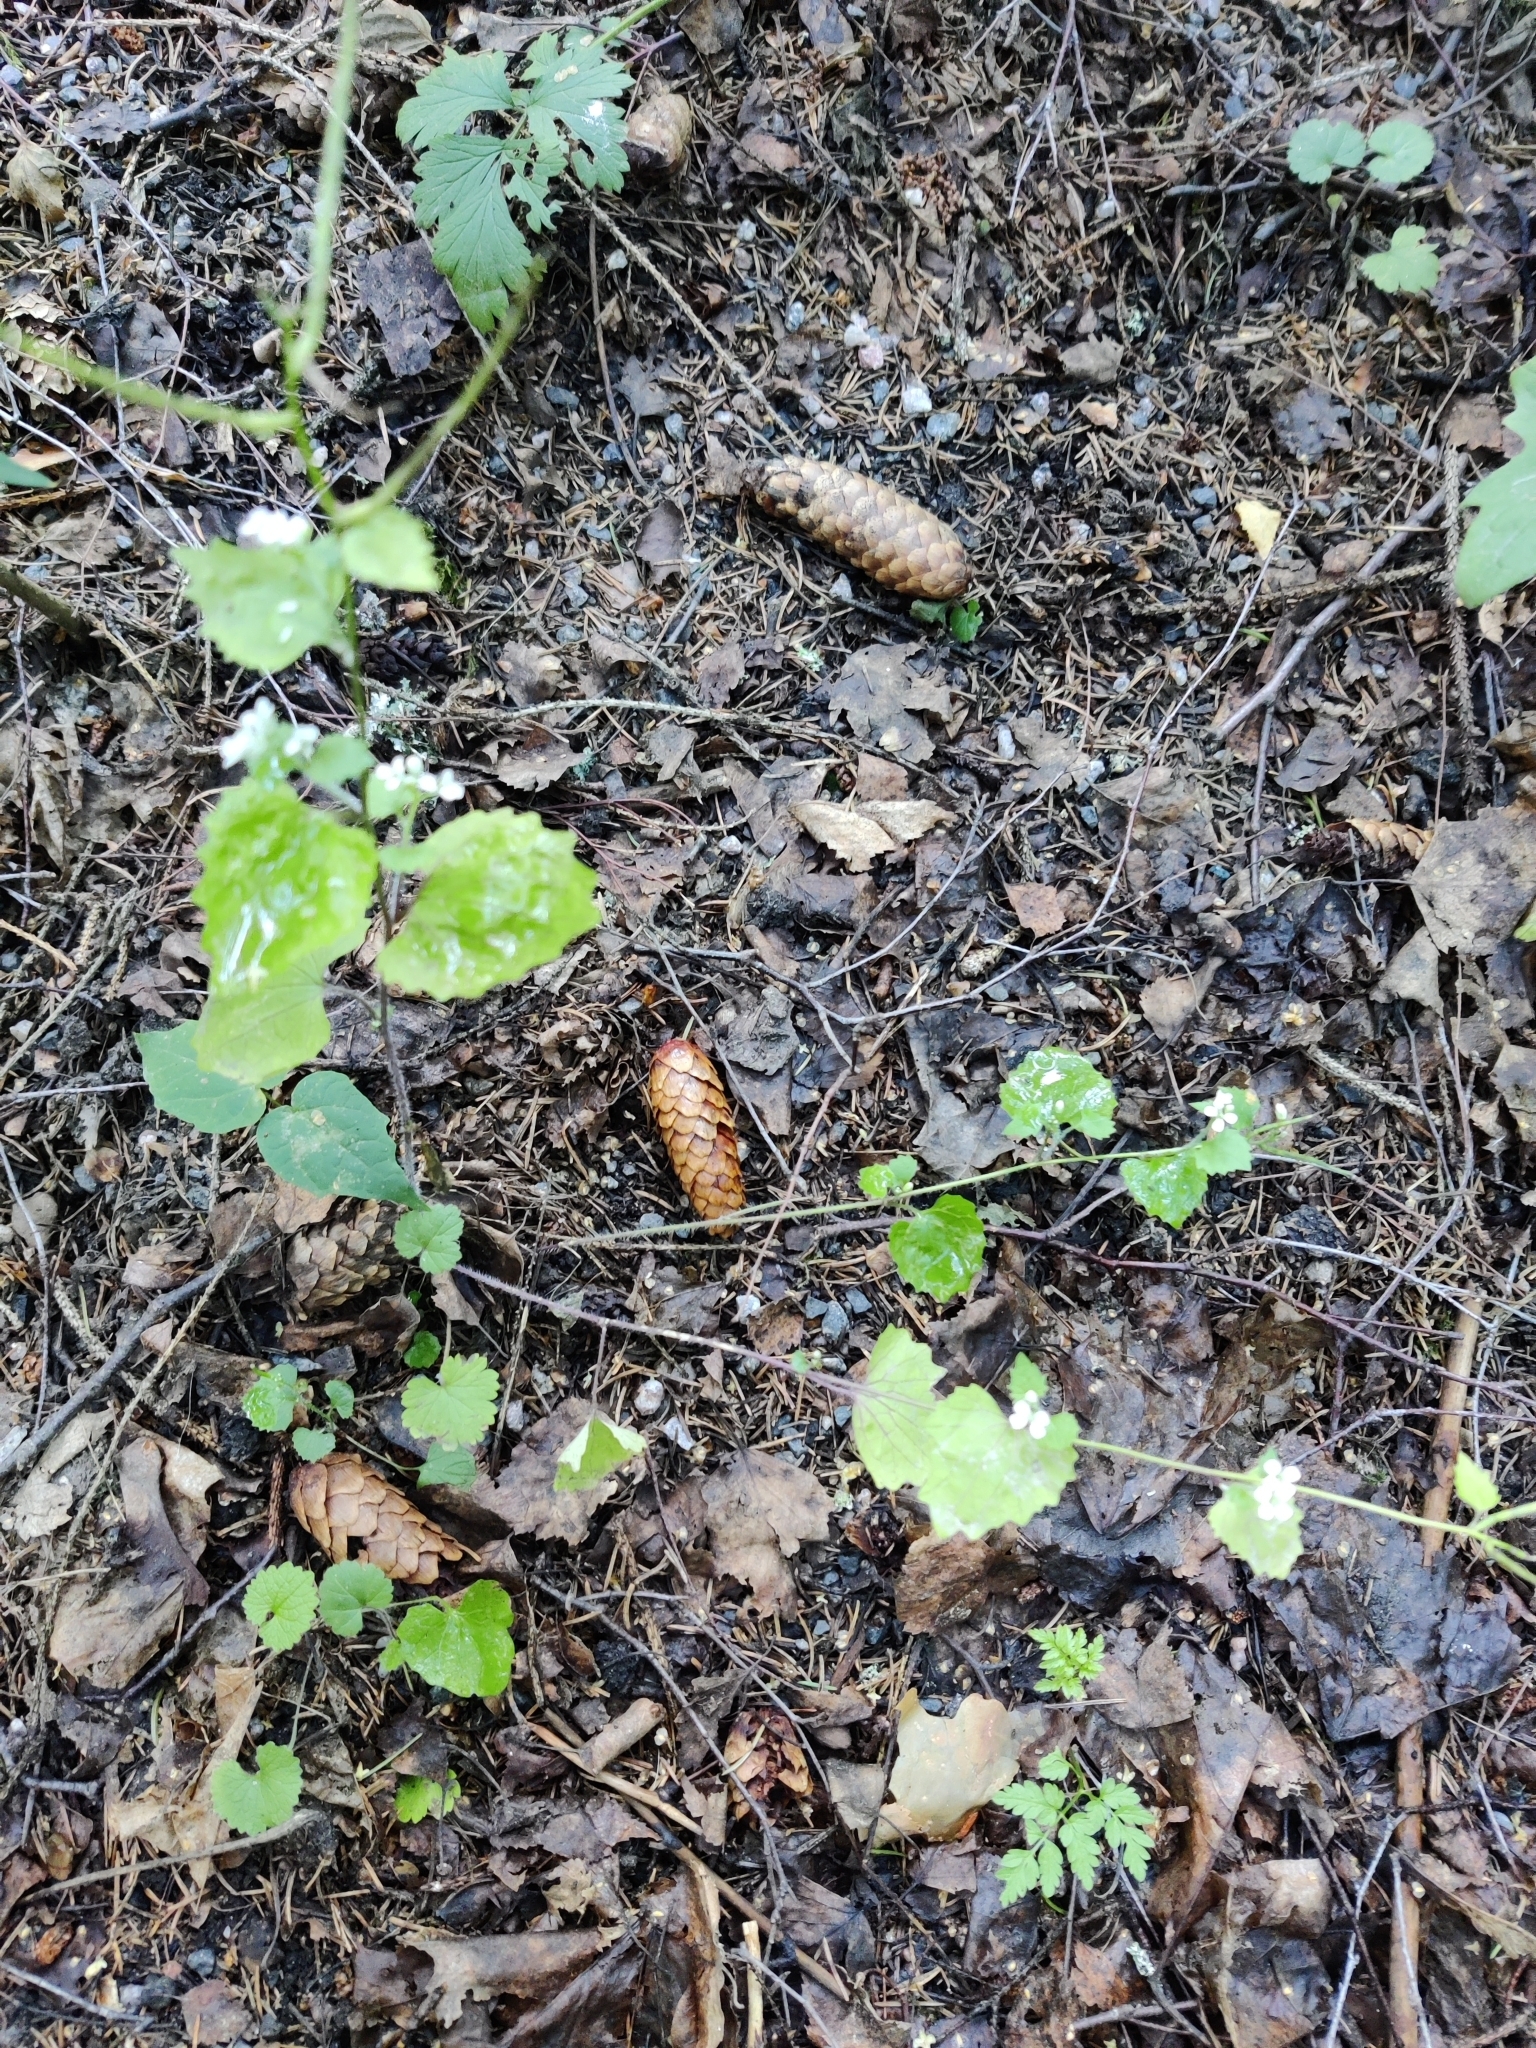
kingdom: Plantae
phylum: Tracheophyta
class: Magnoliopsida
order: Brassicales
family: Brassicaceae
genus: Alliaria
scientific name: Alliaria petiolata
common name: Garlic mustard
